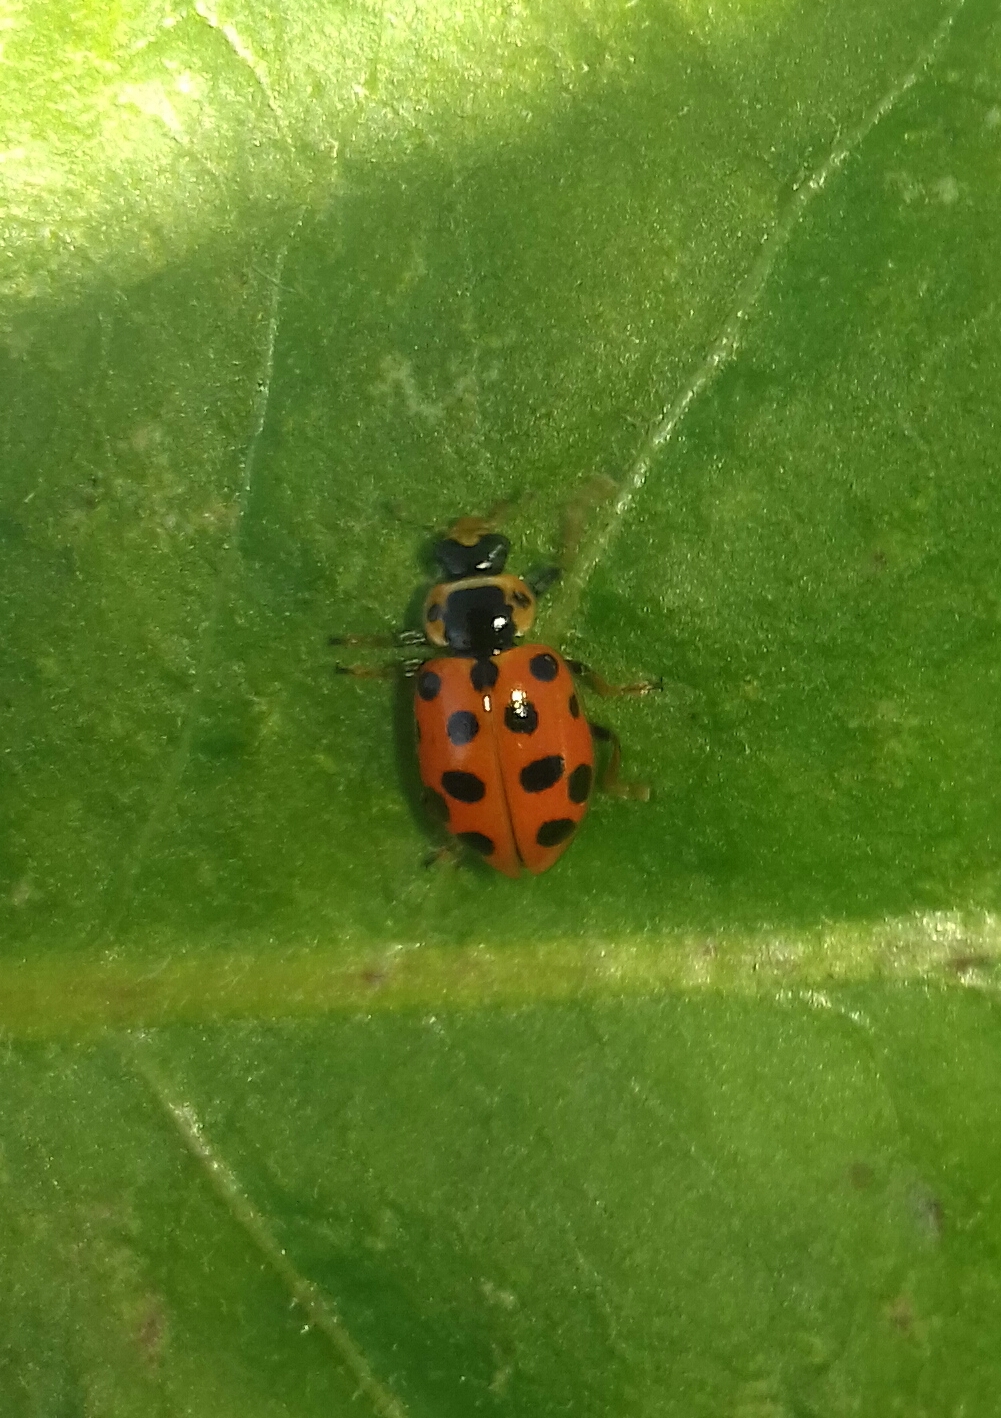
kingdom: Animalia
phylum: Arthropoda
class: Insecta
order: Coleoptera
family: Coccinellidae
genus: Hippodamia
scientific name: Hippodamia tredecimpunctata
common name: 13-spot ladybird
